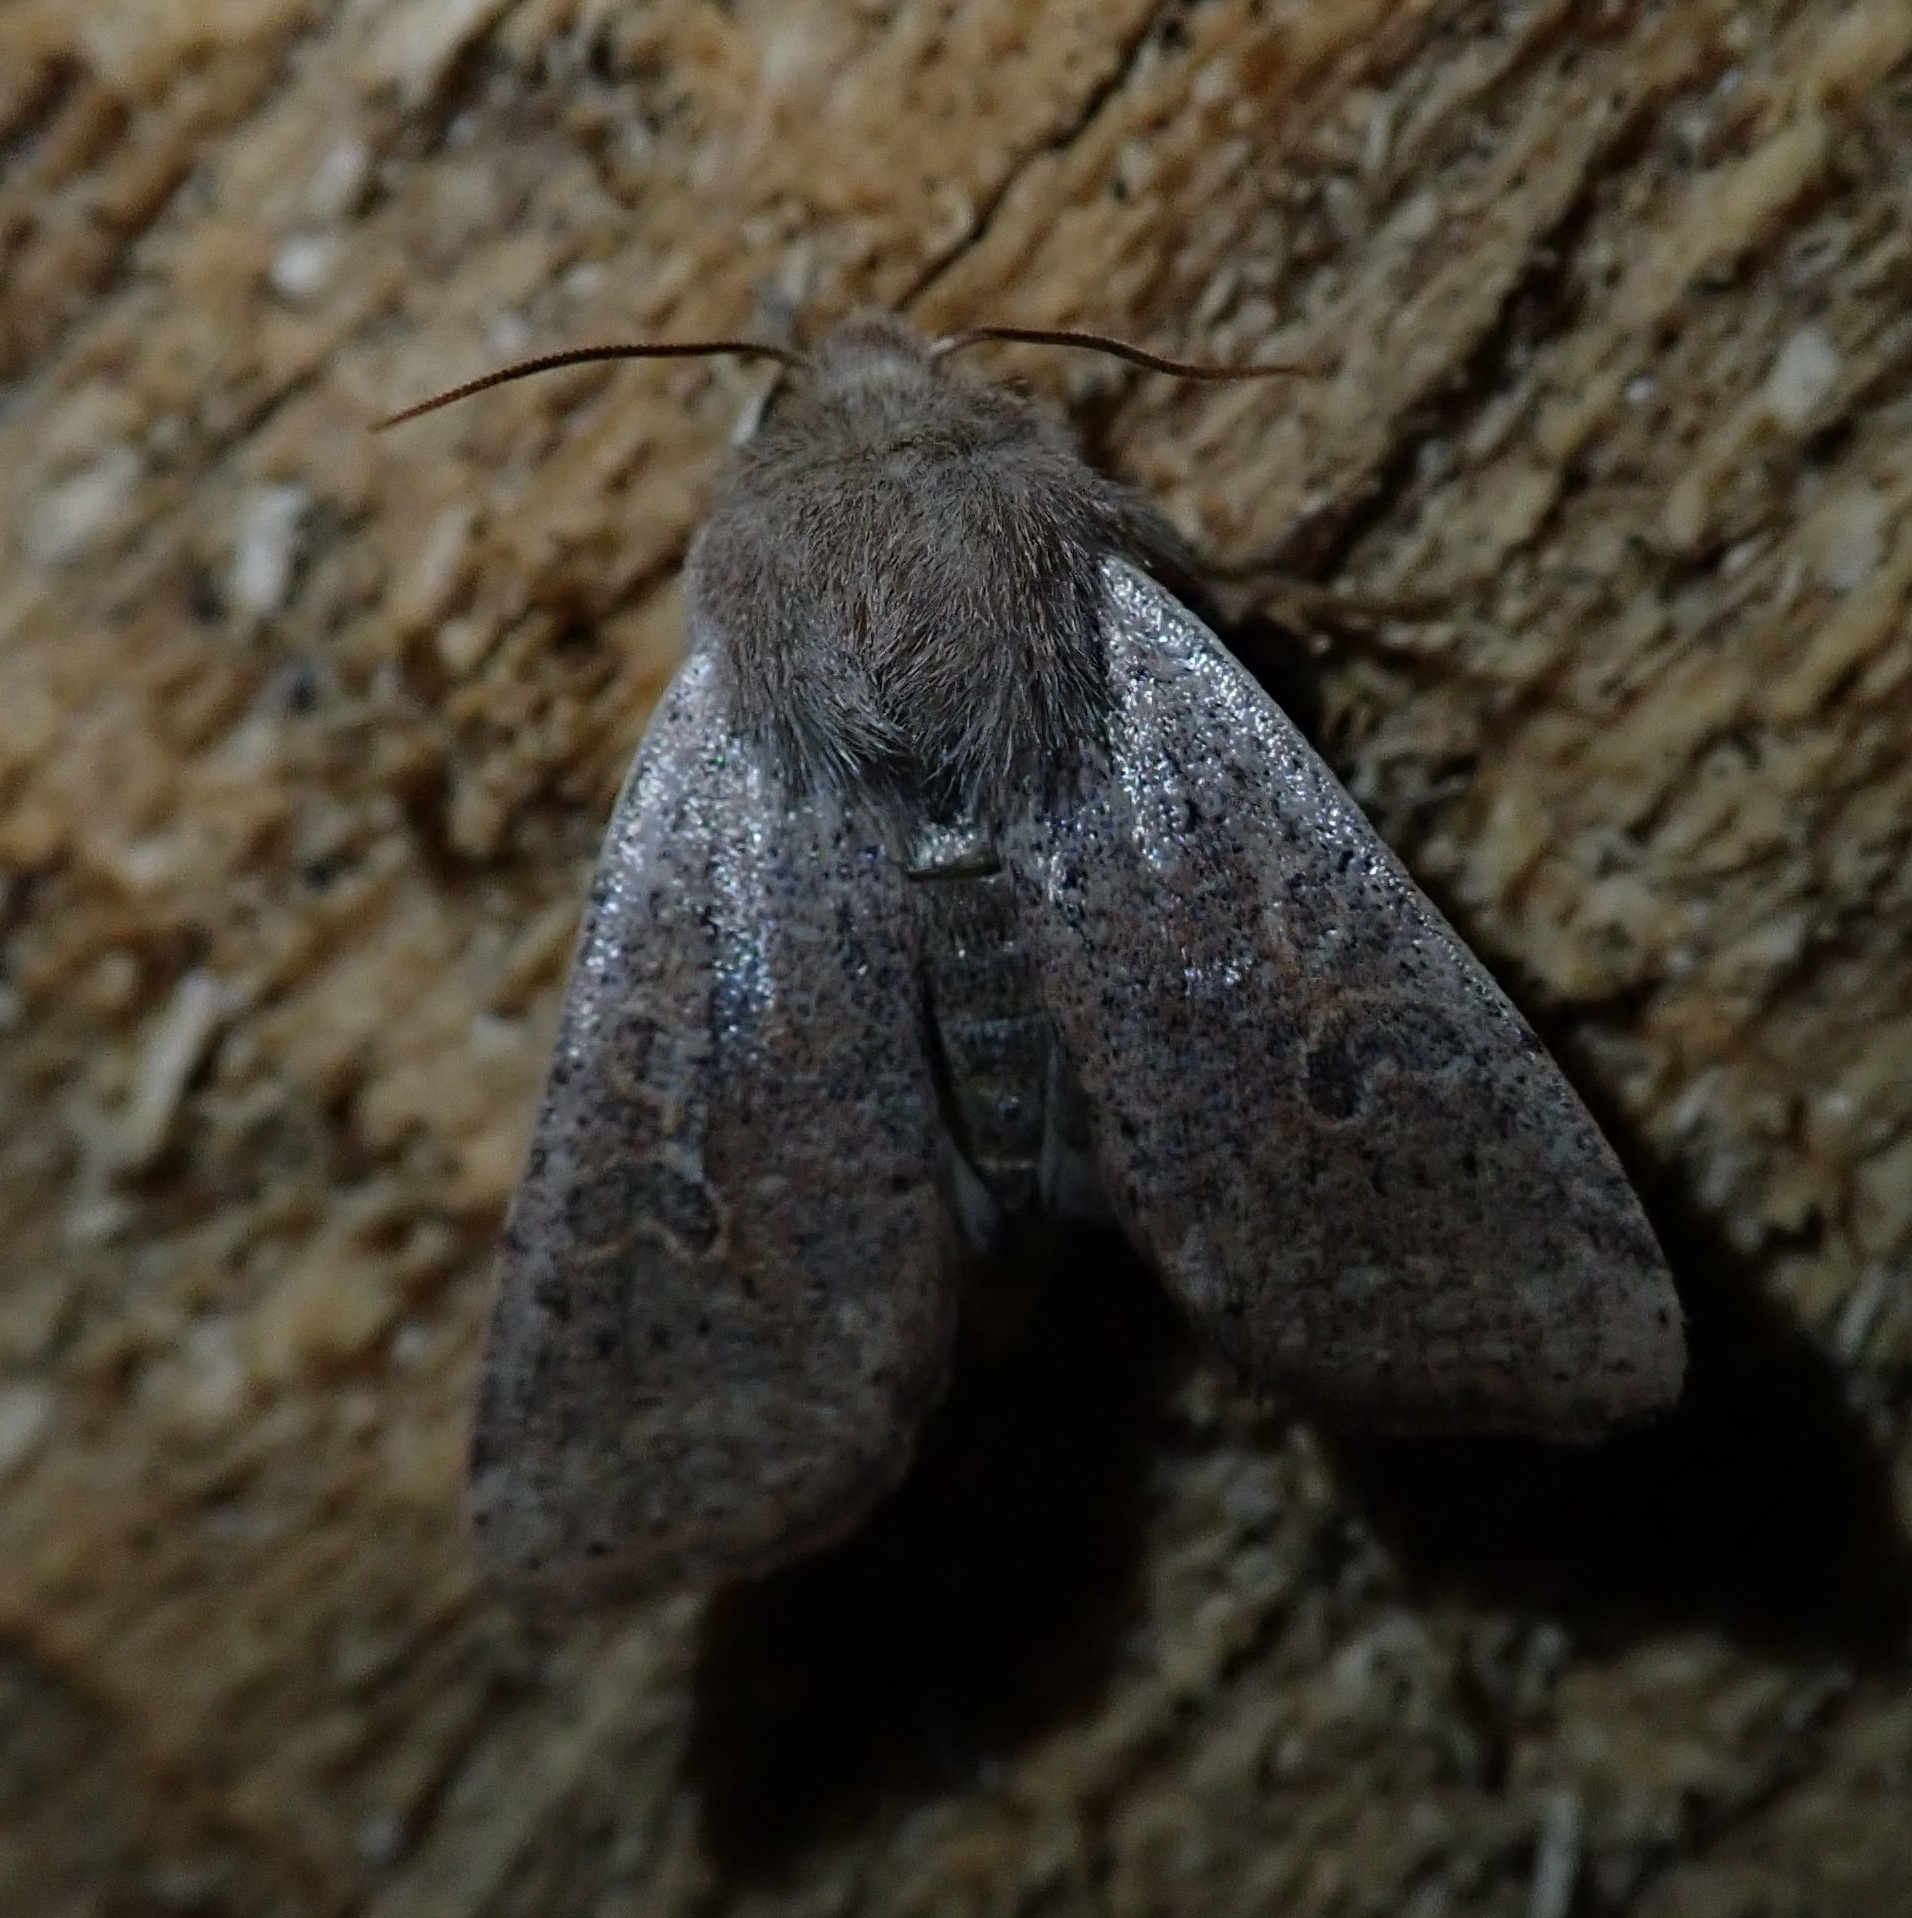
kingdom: Animalia
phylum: Arthropoda
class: Insecta
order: Lepidoptera
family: Noctuidae
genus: Orthosia
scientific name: Orthosia cruda
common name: Small quaker
